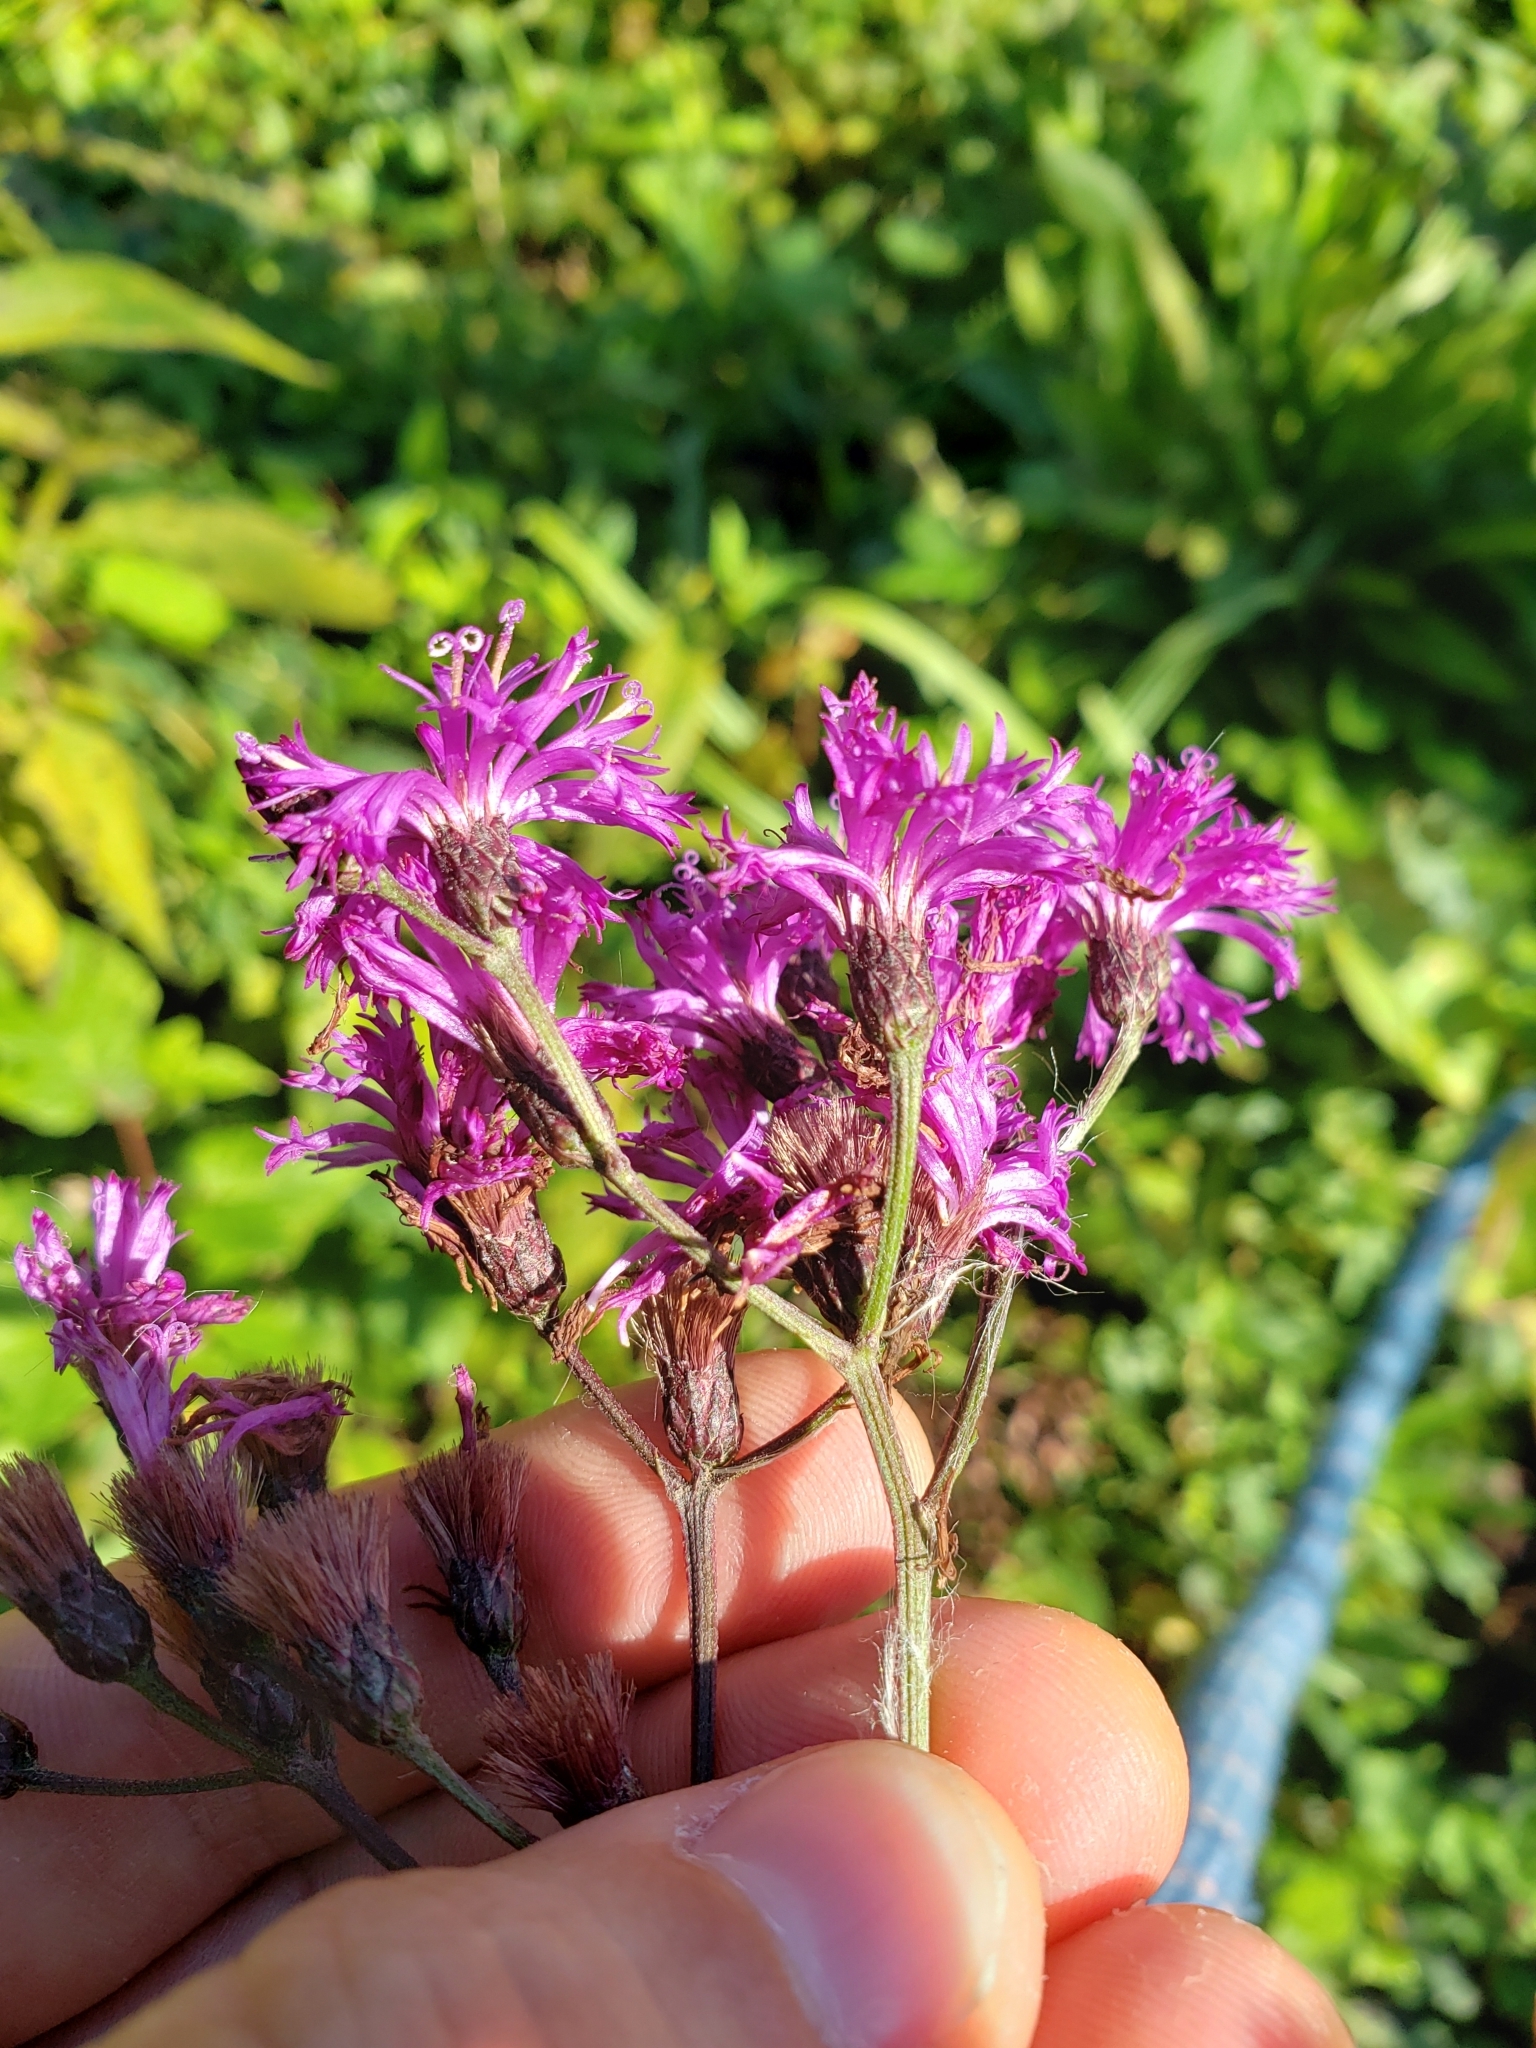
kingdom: Plantae
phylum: Tracheophyta
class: Magnoliopsida
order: Asterales
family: Asteraceae
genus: Vernonia
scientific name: Vernonia gigantea
